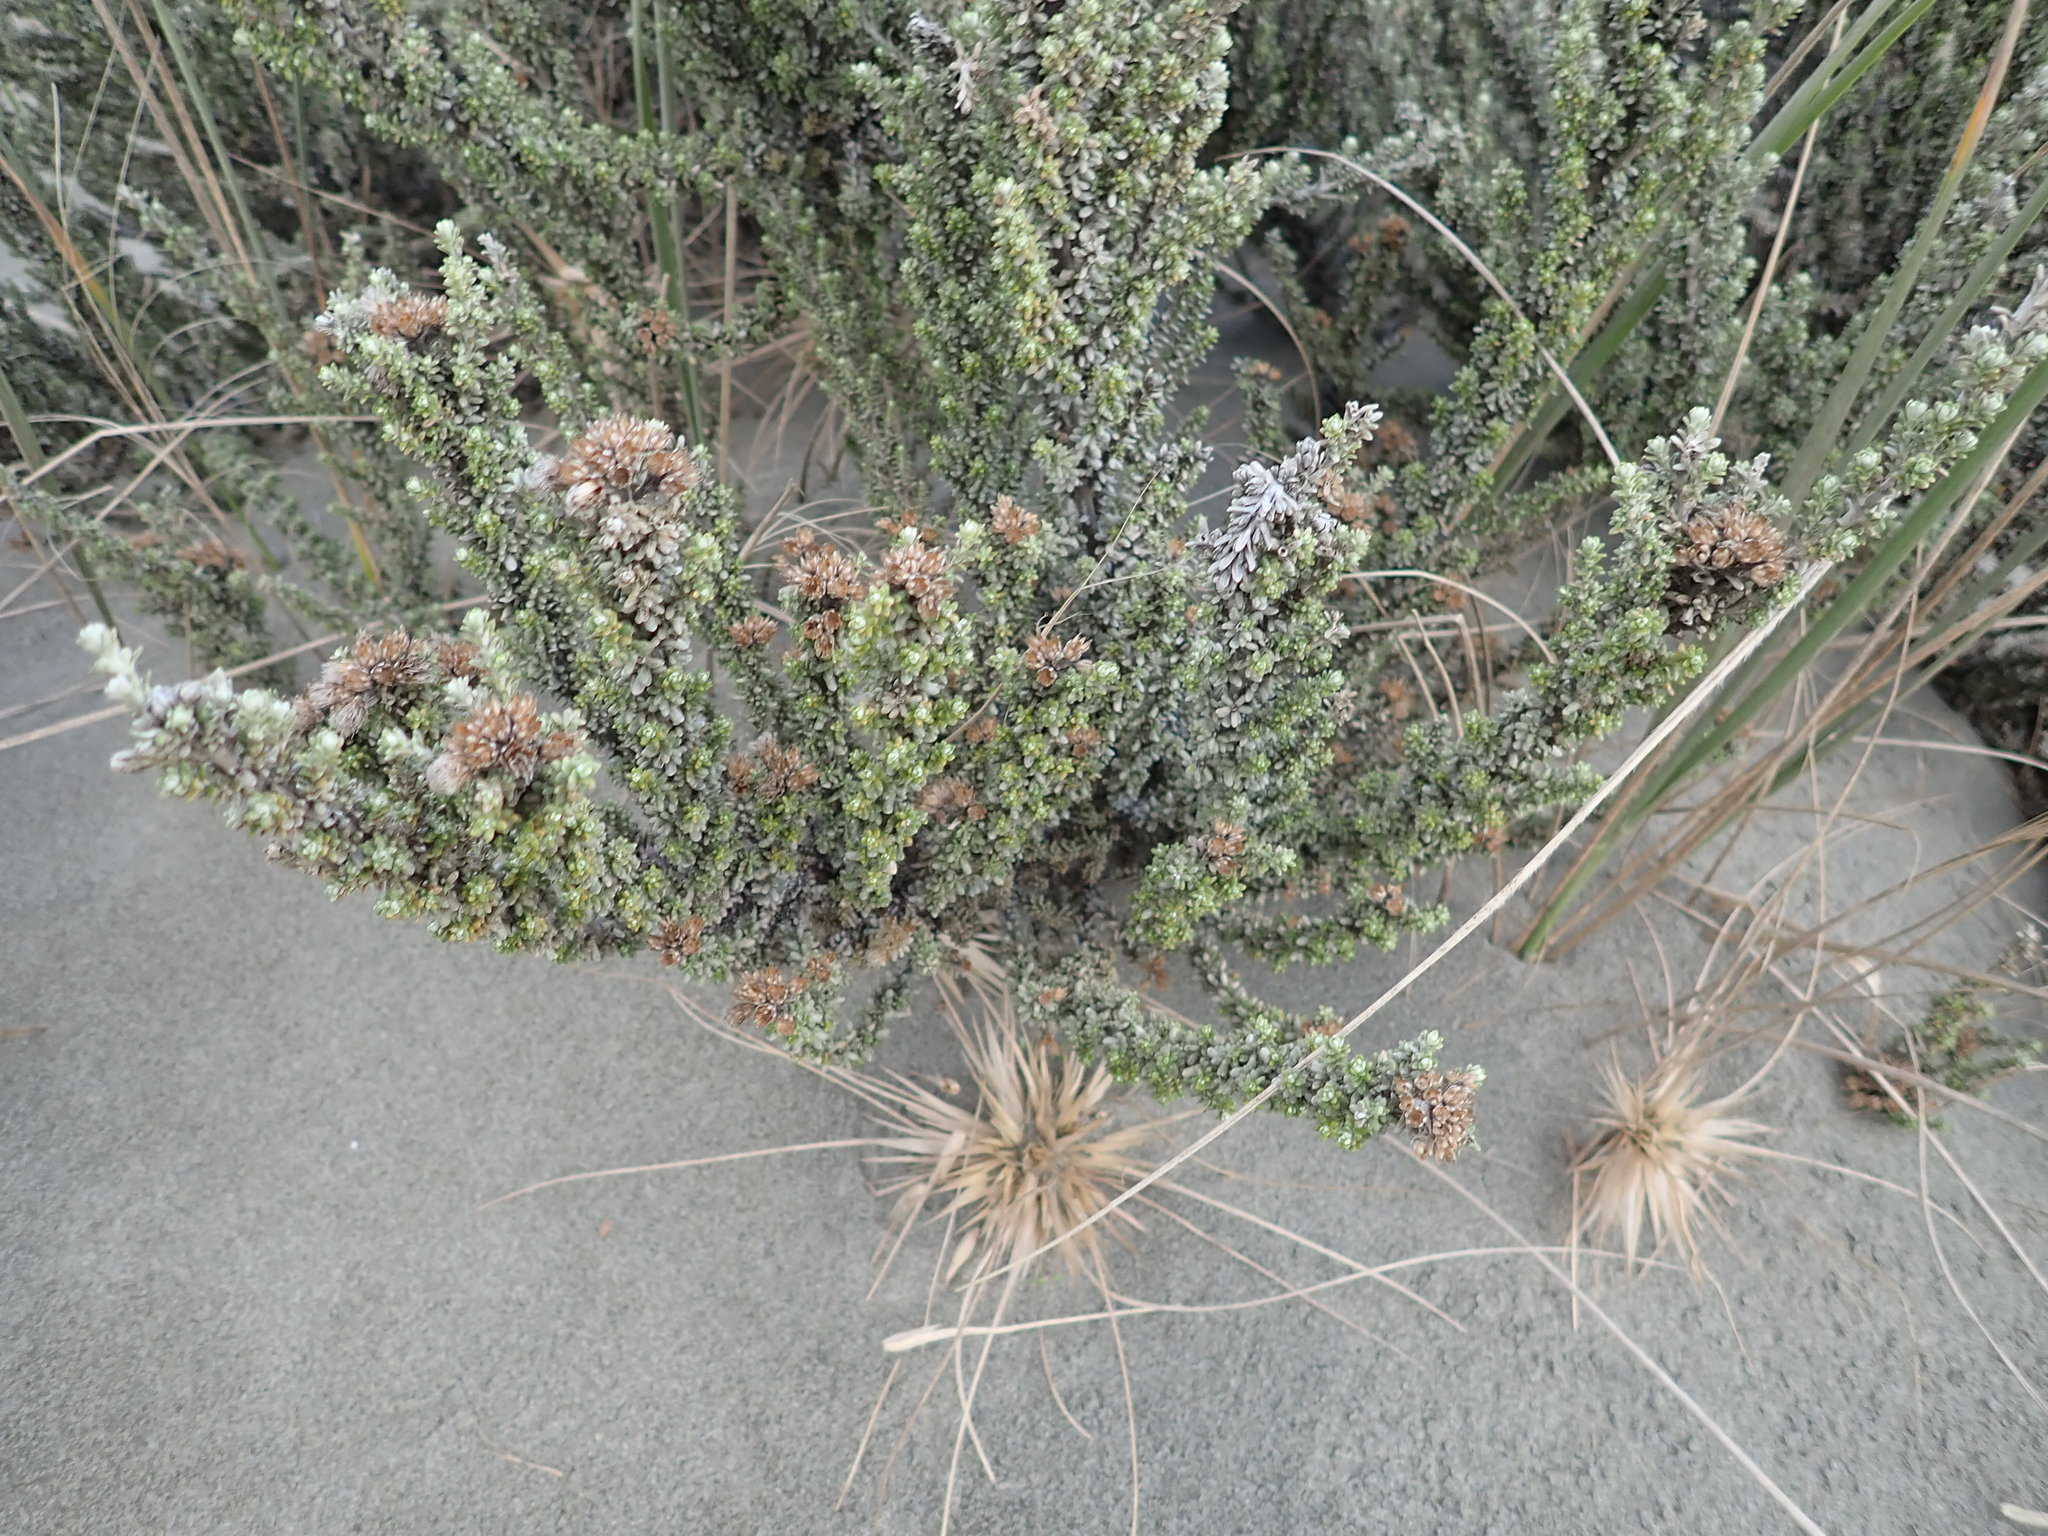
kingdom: Plantae
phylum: Tracheophyta
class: Magnoliopsida
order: Asterales
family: Asteraceae
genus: Ozothamnus
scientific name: Ozothamnus leptophyllus
